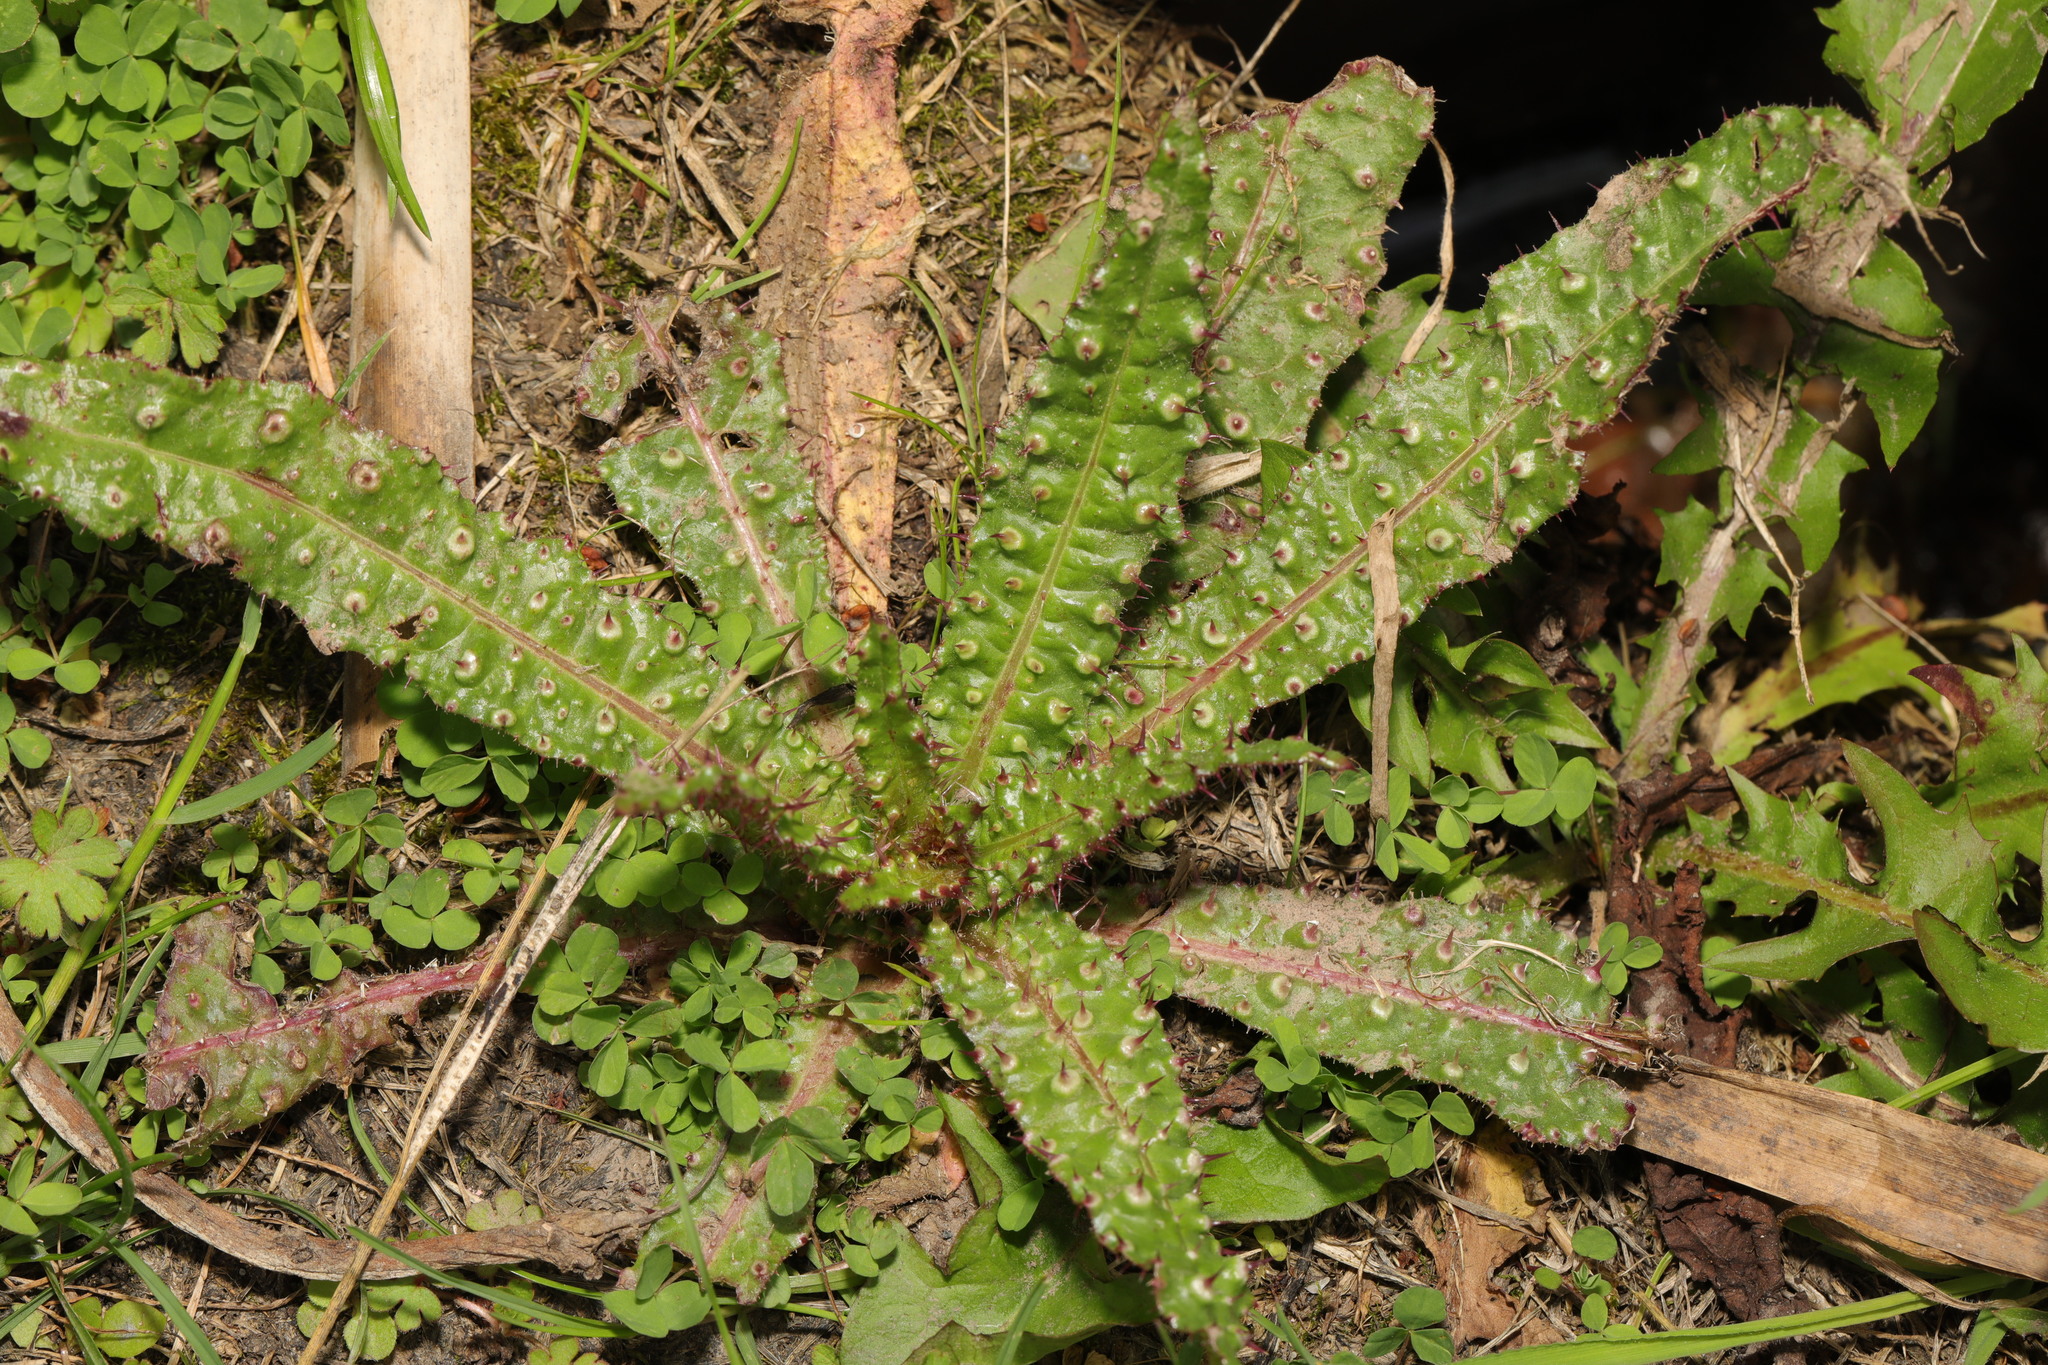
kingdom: Plantae
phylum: Tracheophyta
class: Magnoliopsida
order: Asterales
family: Asteraceae
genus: Helminthotheca
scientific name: Helminthotheca echioides
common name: Ox-tongue
